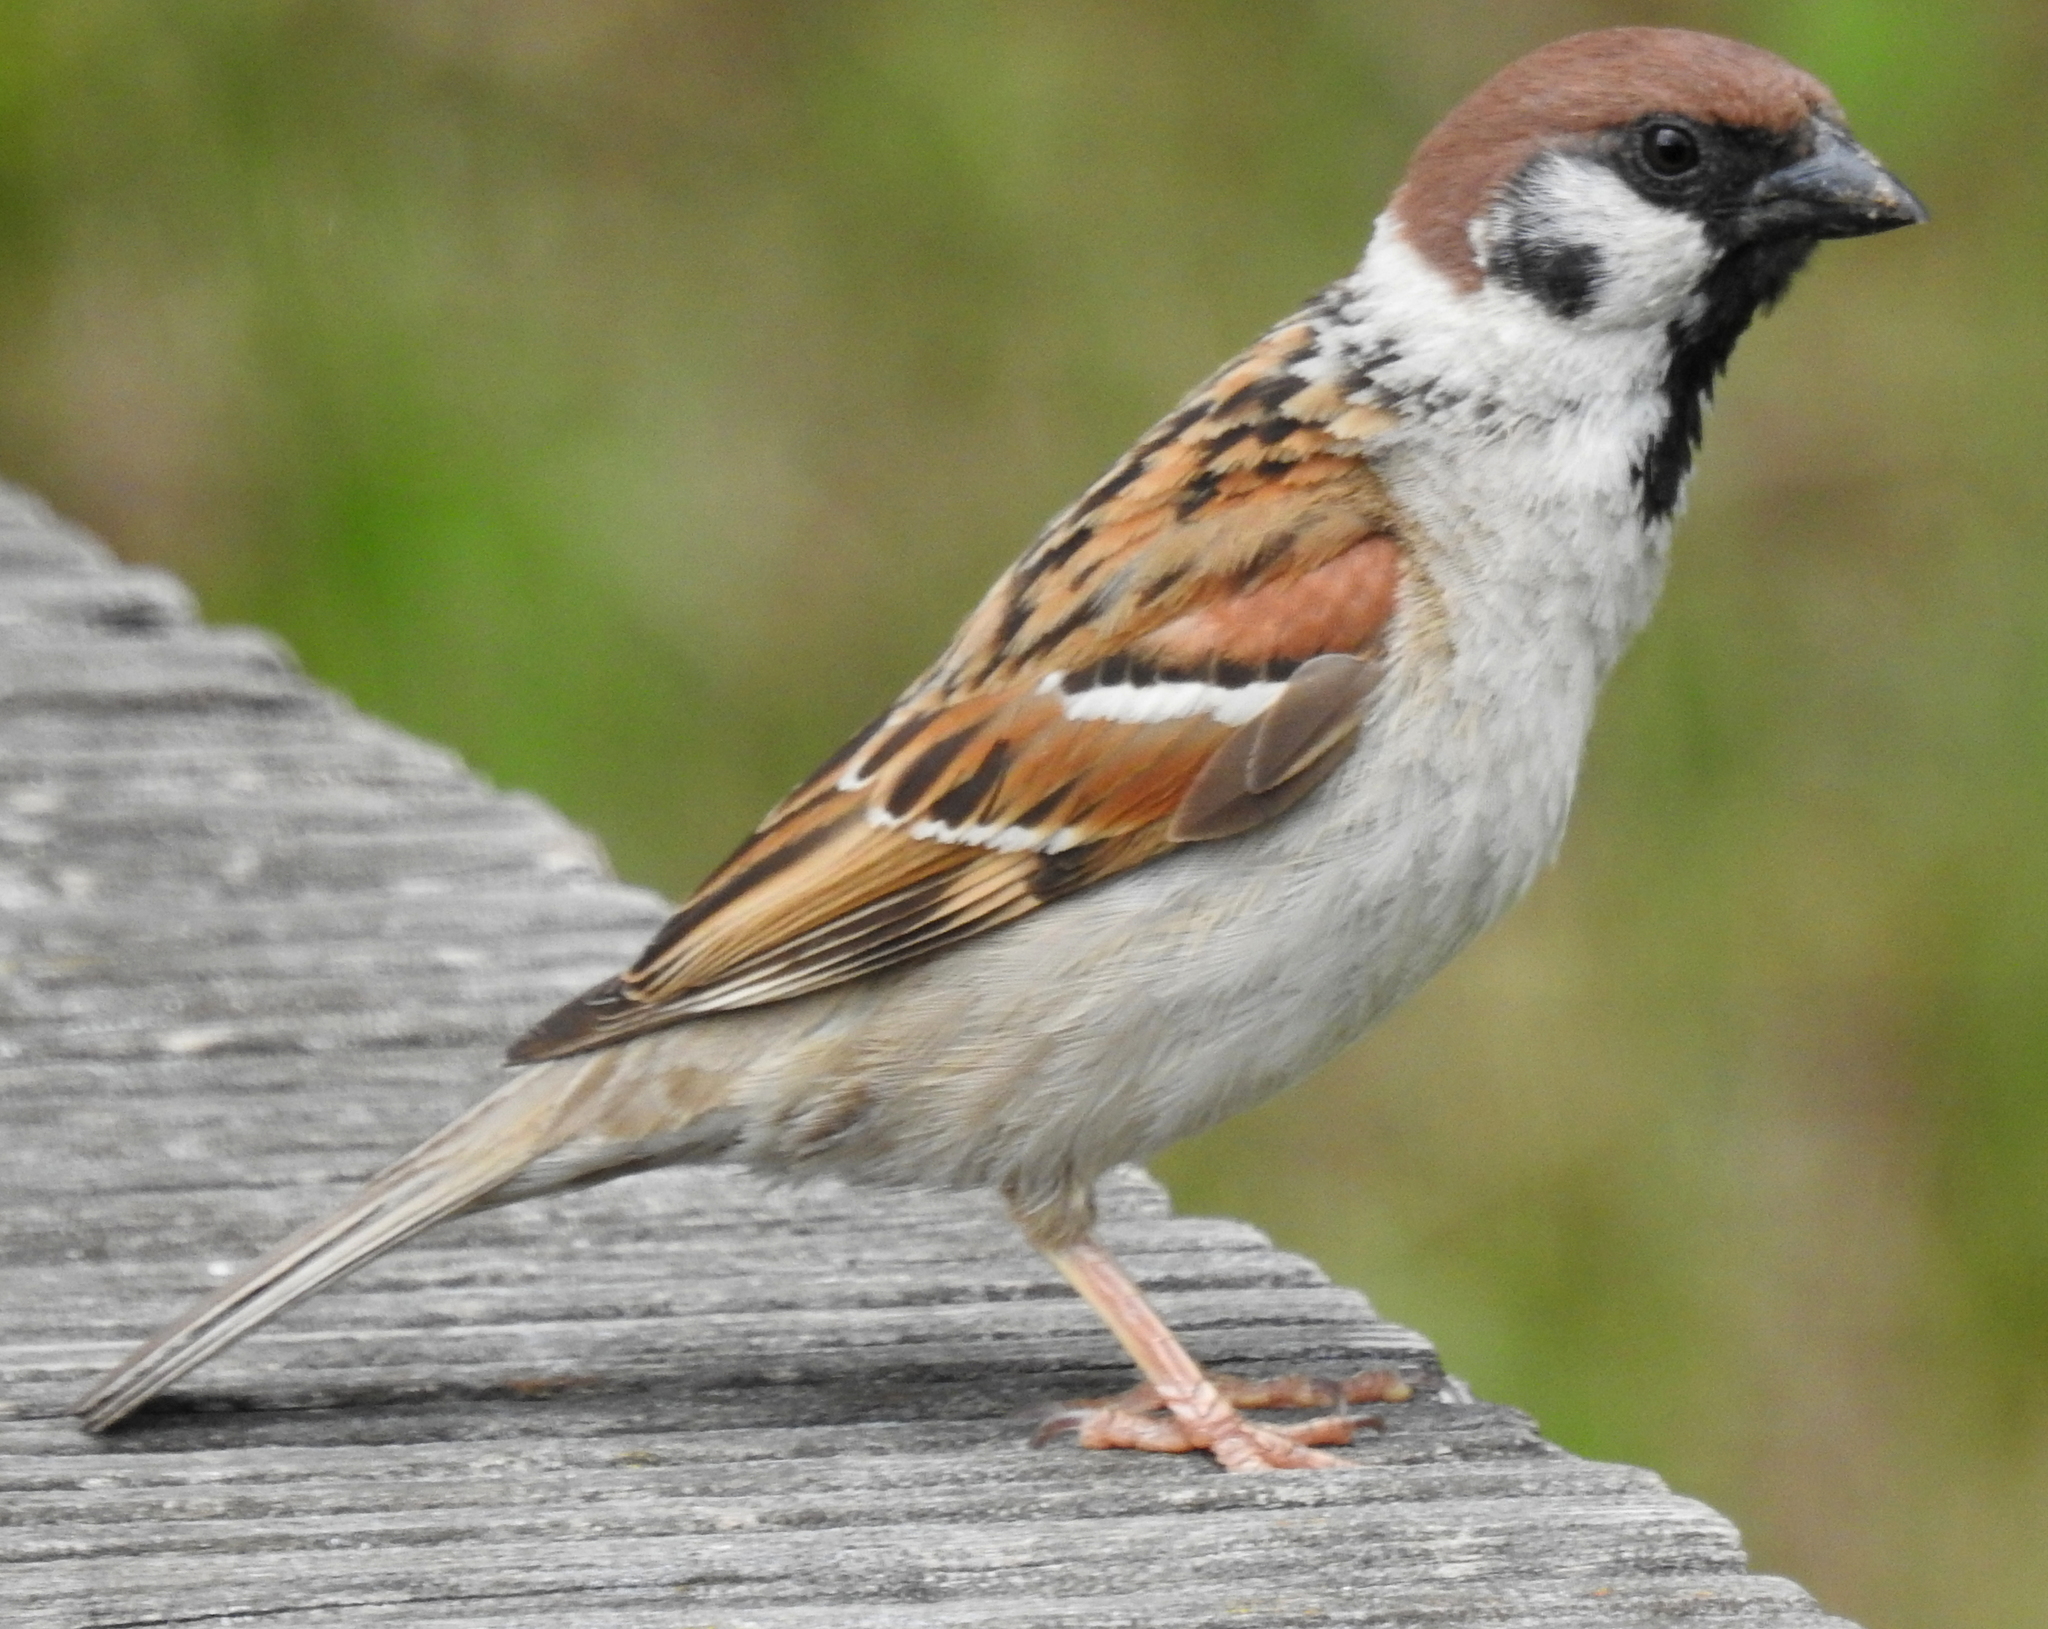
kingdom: Animalia
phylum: Chordata
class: Aves
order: Passeriformes
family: Passeridae
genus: Passer
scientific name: Passer montanus
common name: Eurasian tree sparrow
